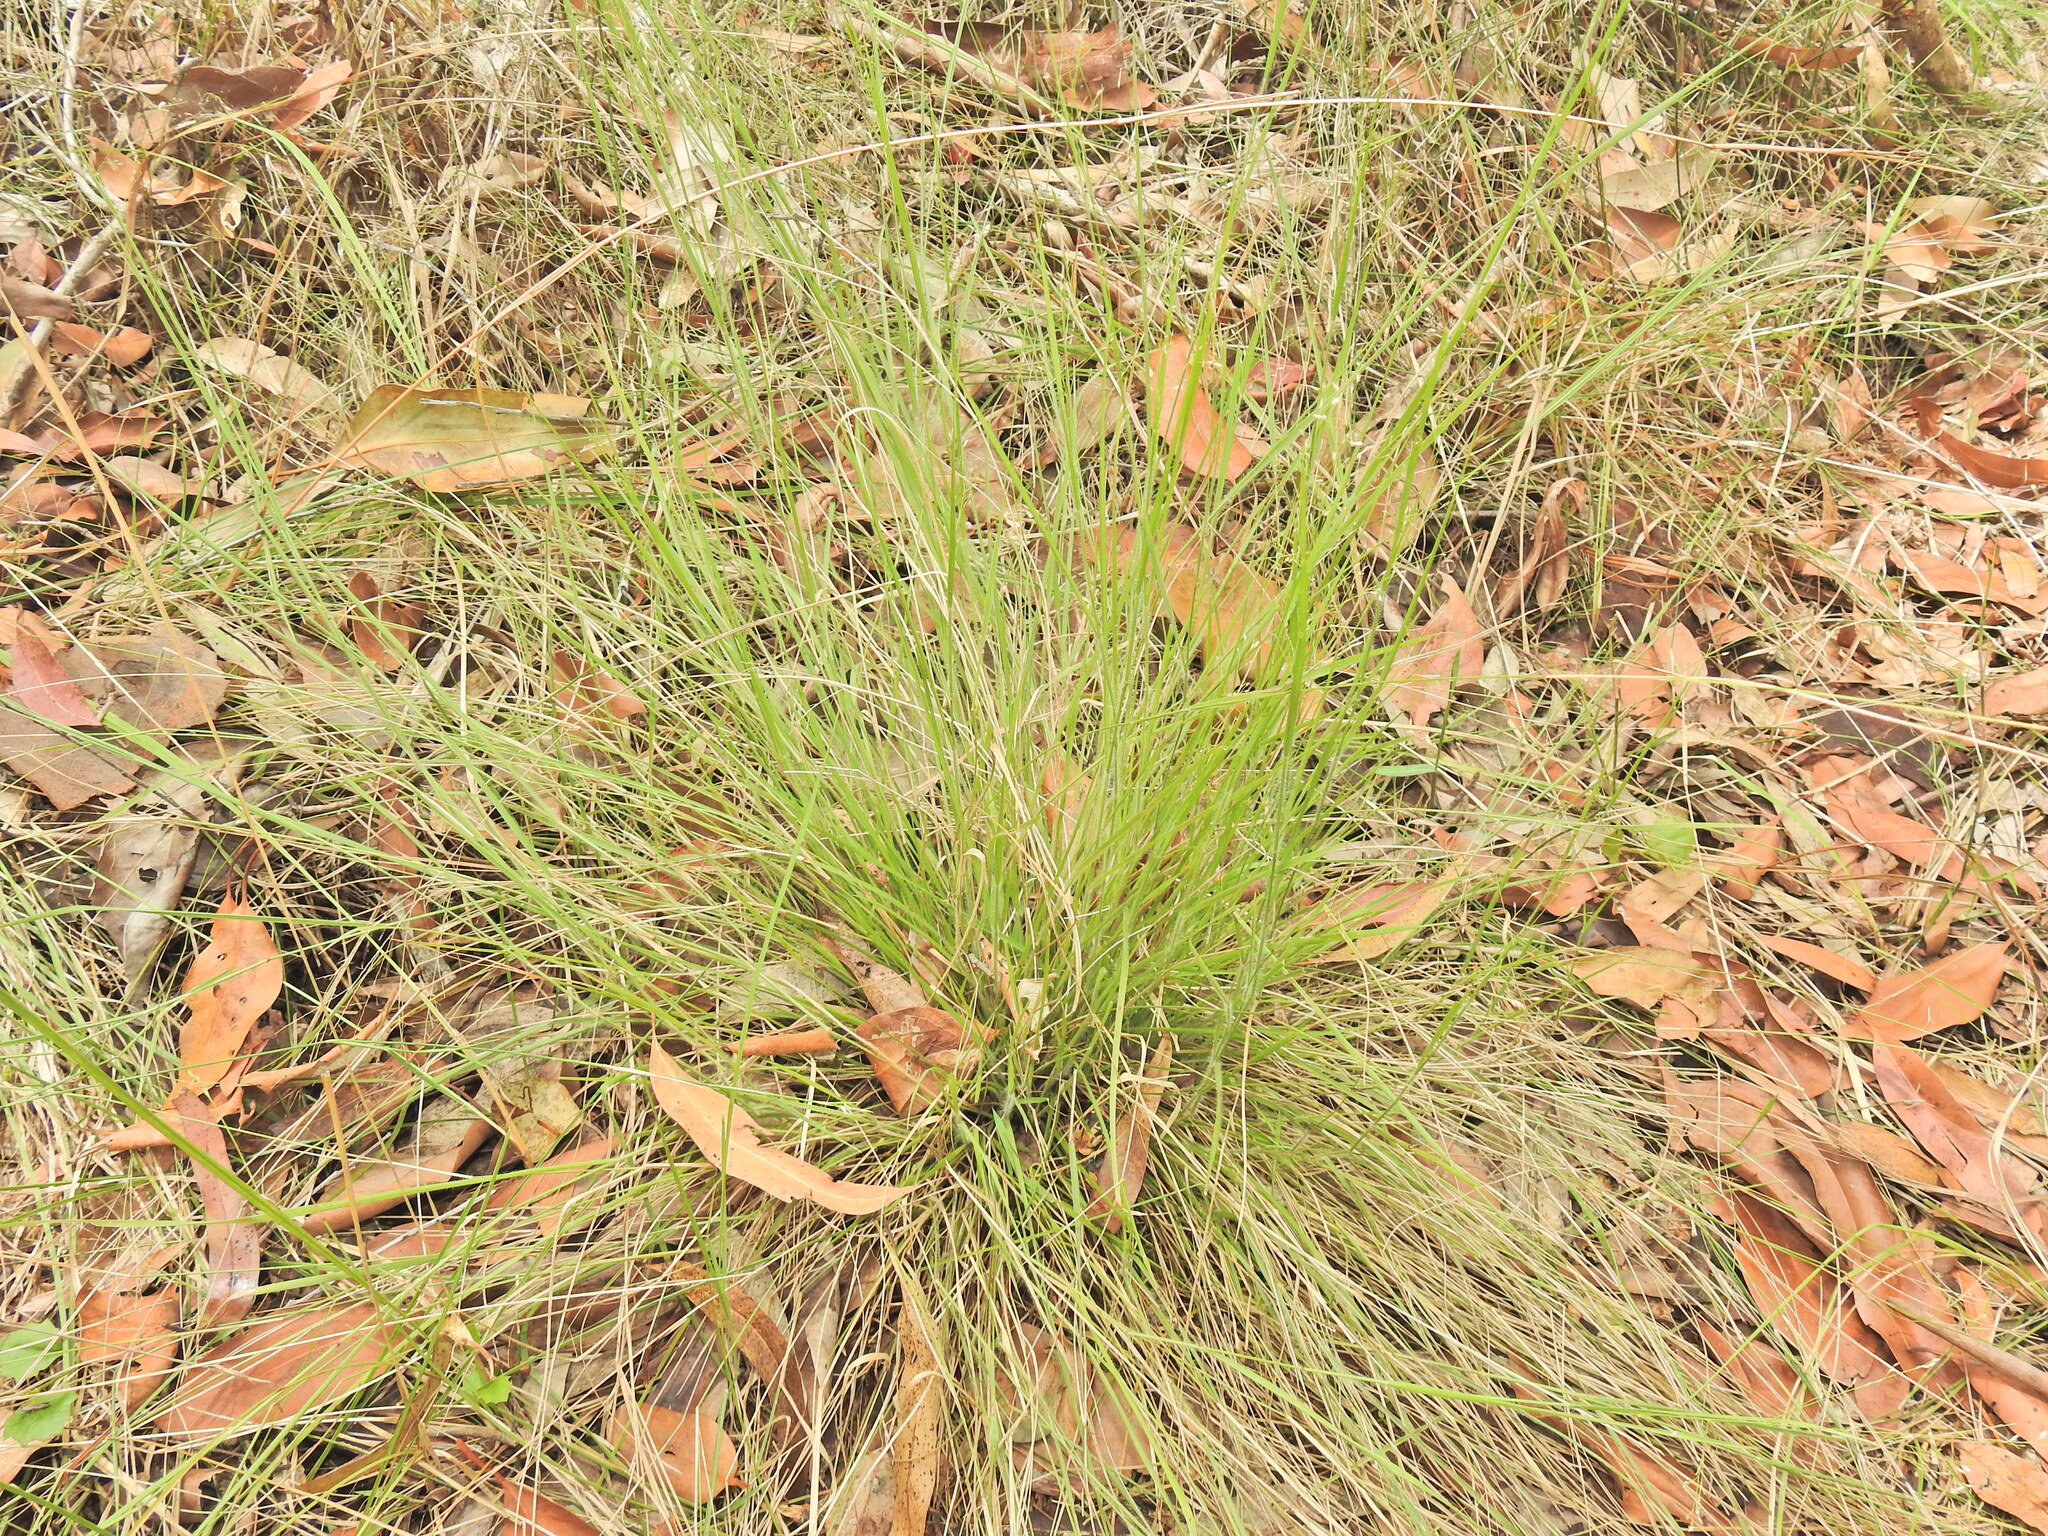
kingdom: Plantae
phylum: Tracheophyta
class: Liliopsida
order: Poales
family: Poaceae
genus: Panicum
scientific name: Panicum effusum
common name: Hairy panic grass
